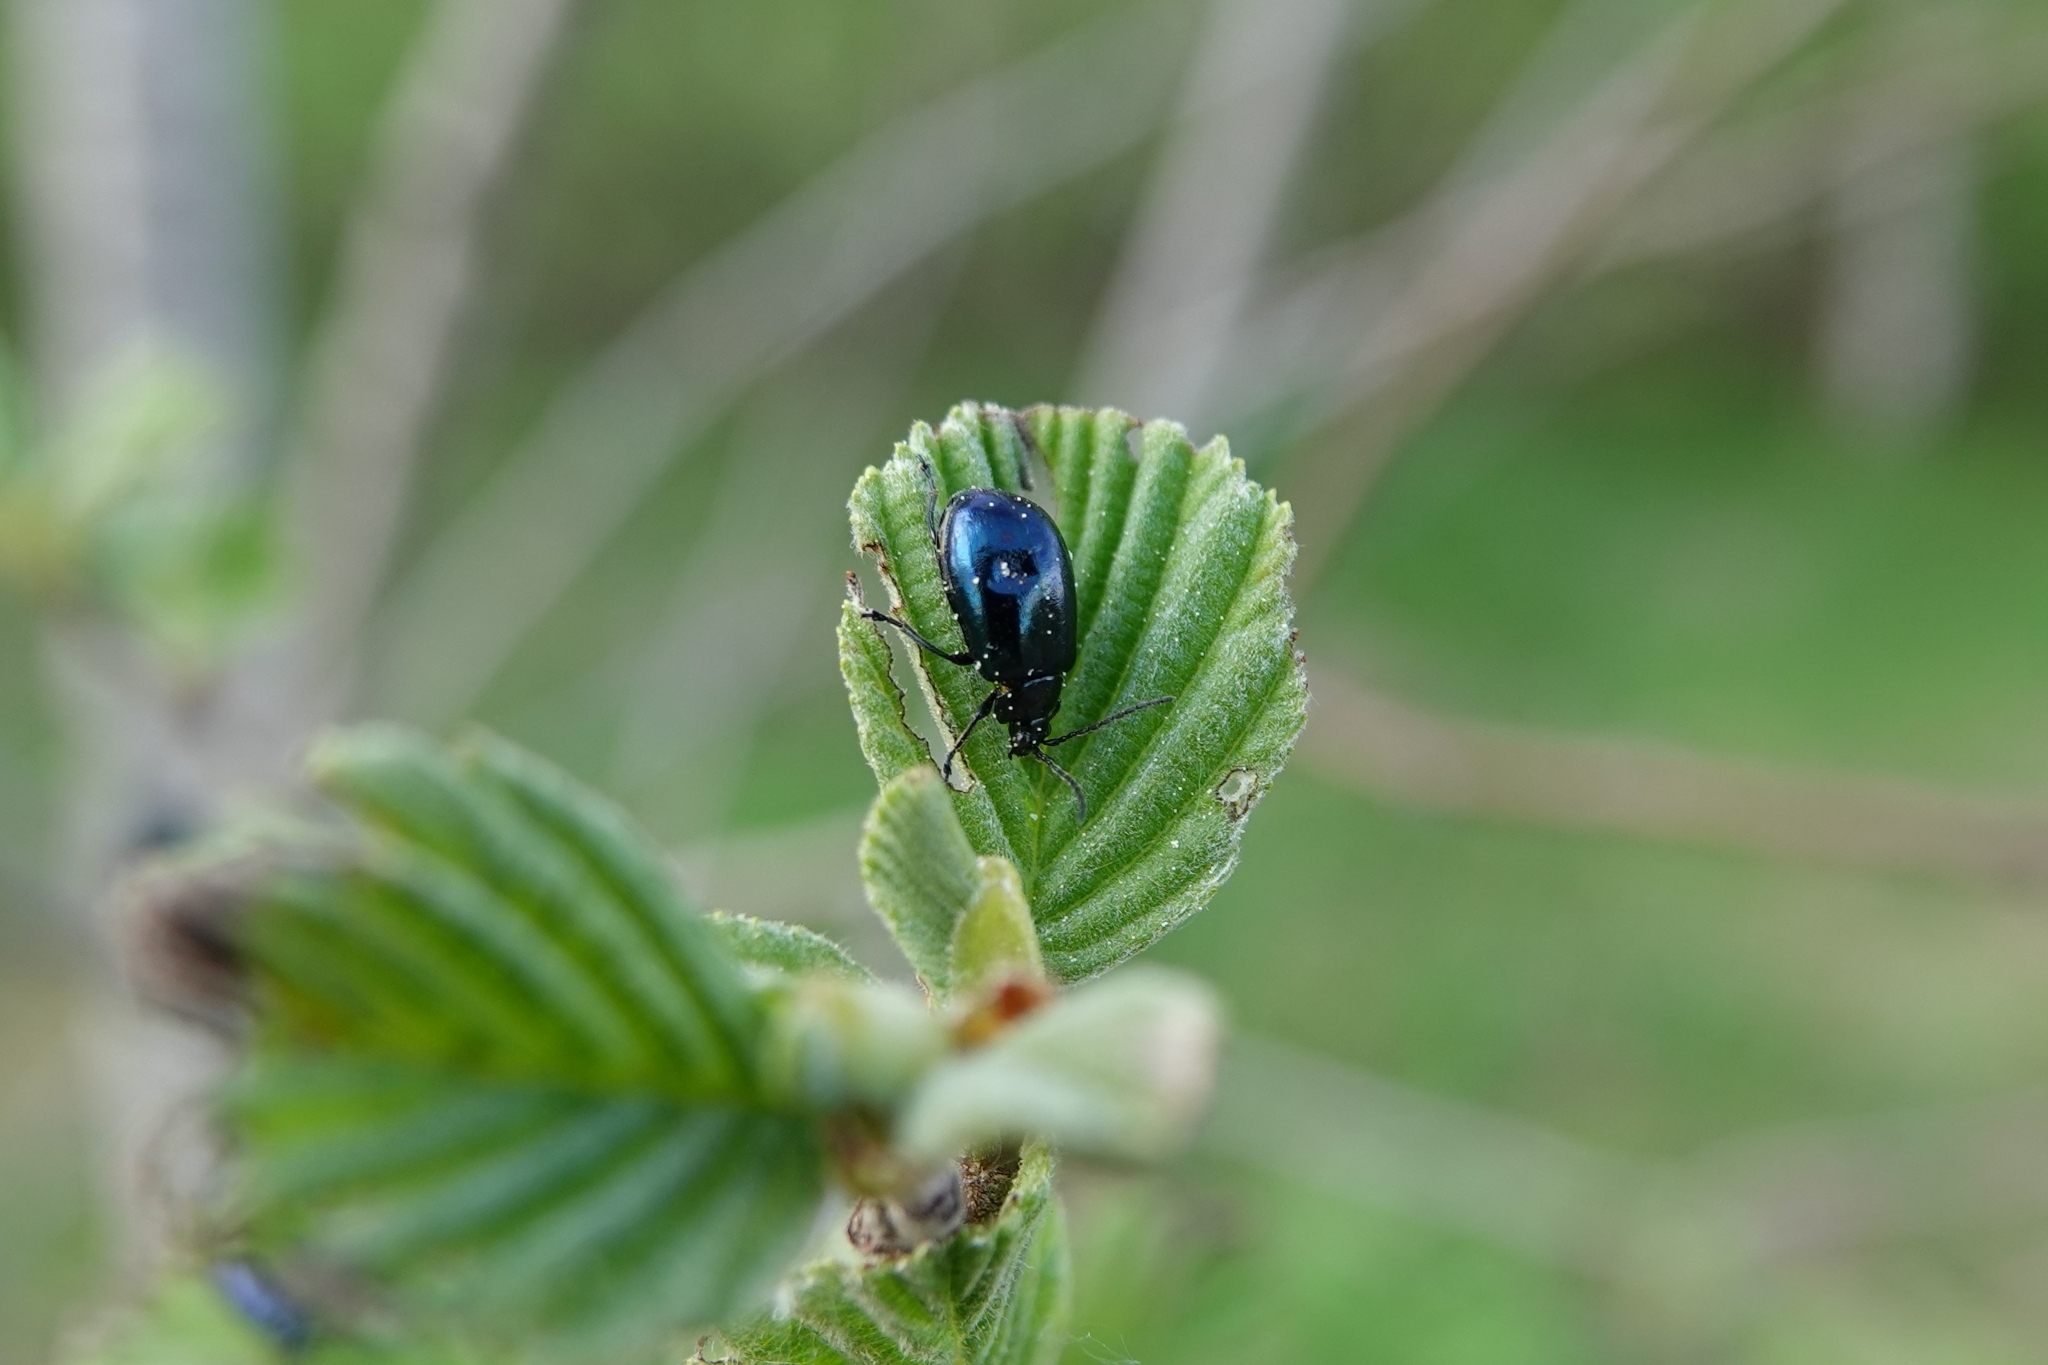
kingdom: Animalia
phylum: Arthropoda
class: Insecta
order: Coleoptera
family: Chrysomelidae
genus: Agelastica
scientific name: Agelastica alni
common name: Alder leaf beetle
